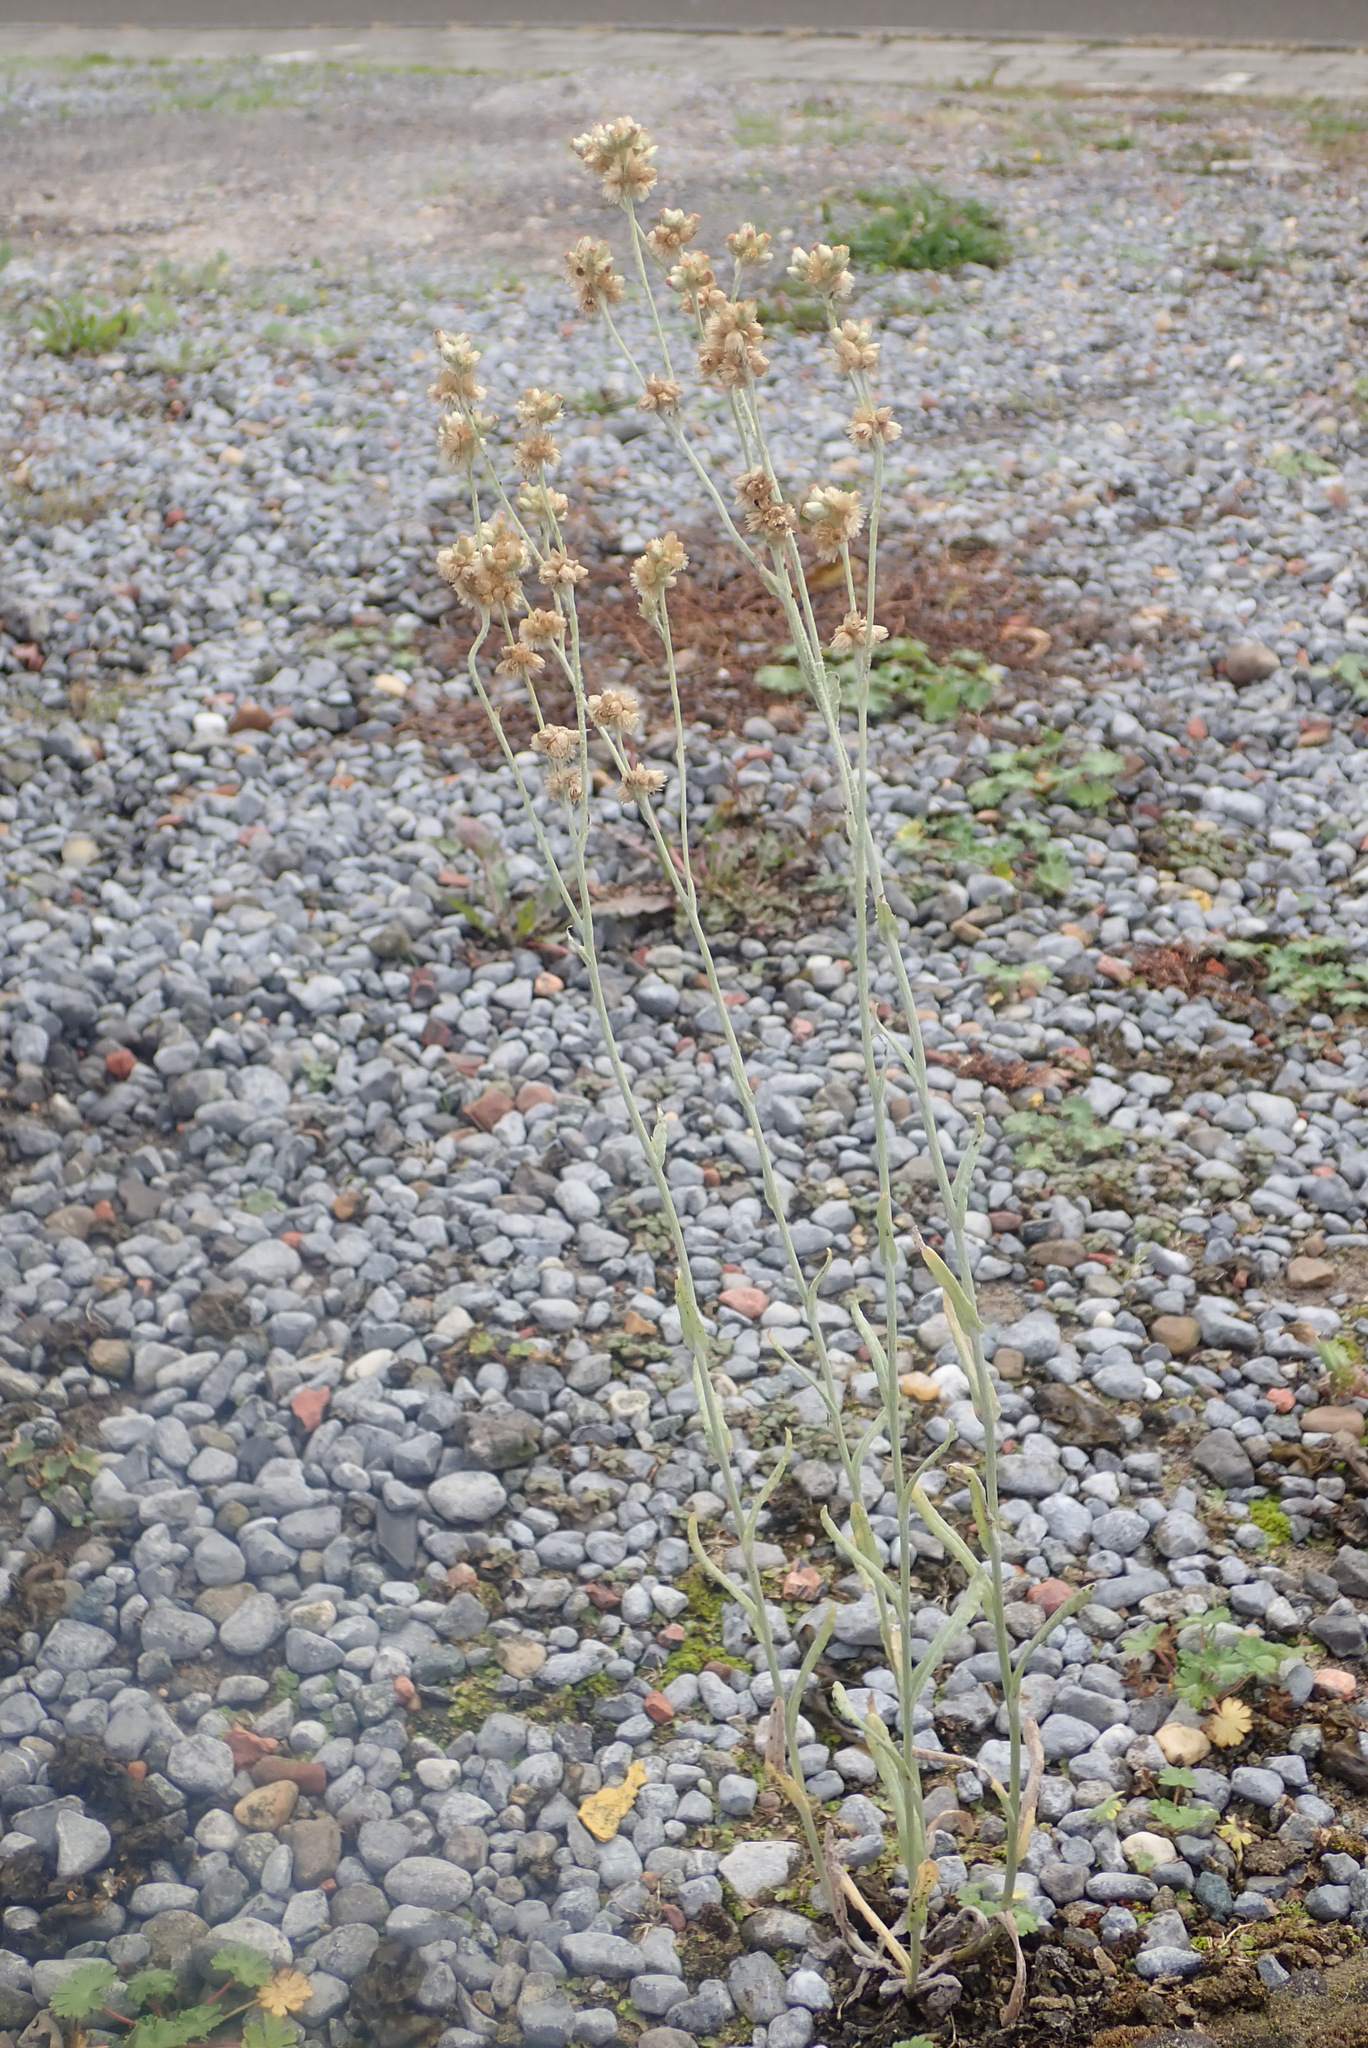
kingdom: Plantae
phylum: Tracheophyta
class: Magnoliopsida
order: Asterales
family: Asteraceae
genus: Helichrysum
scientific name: Helichrysum luteoalbum
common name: Daisy
